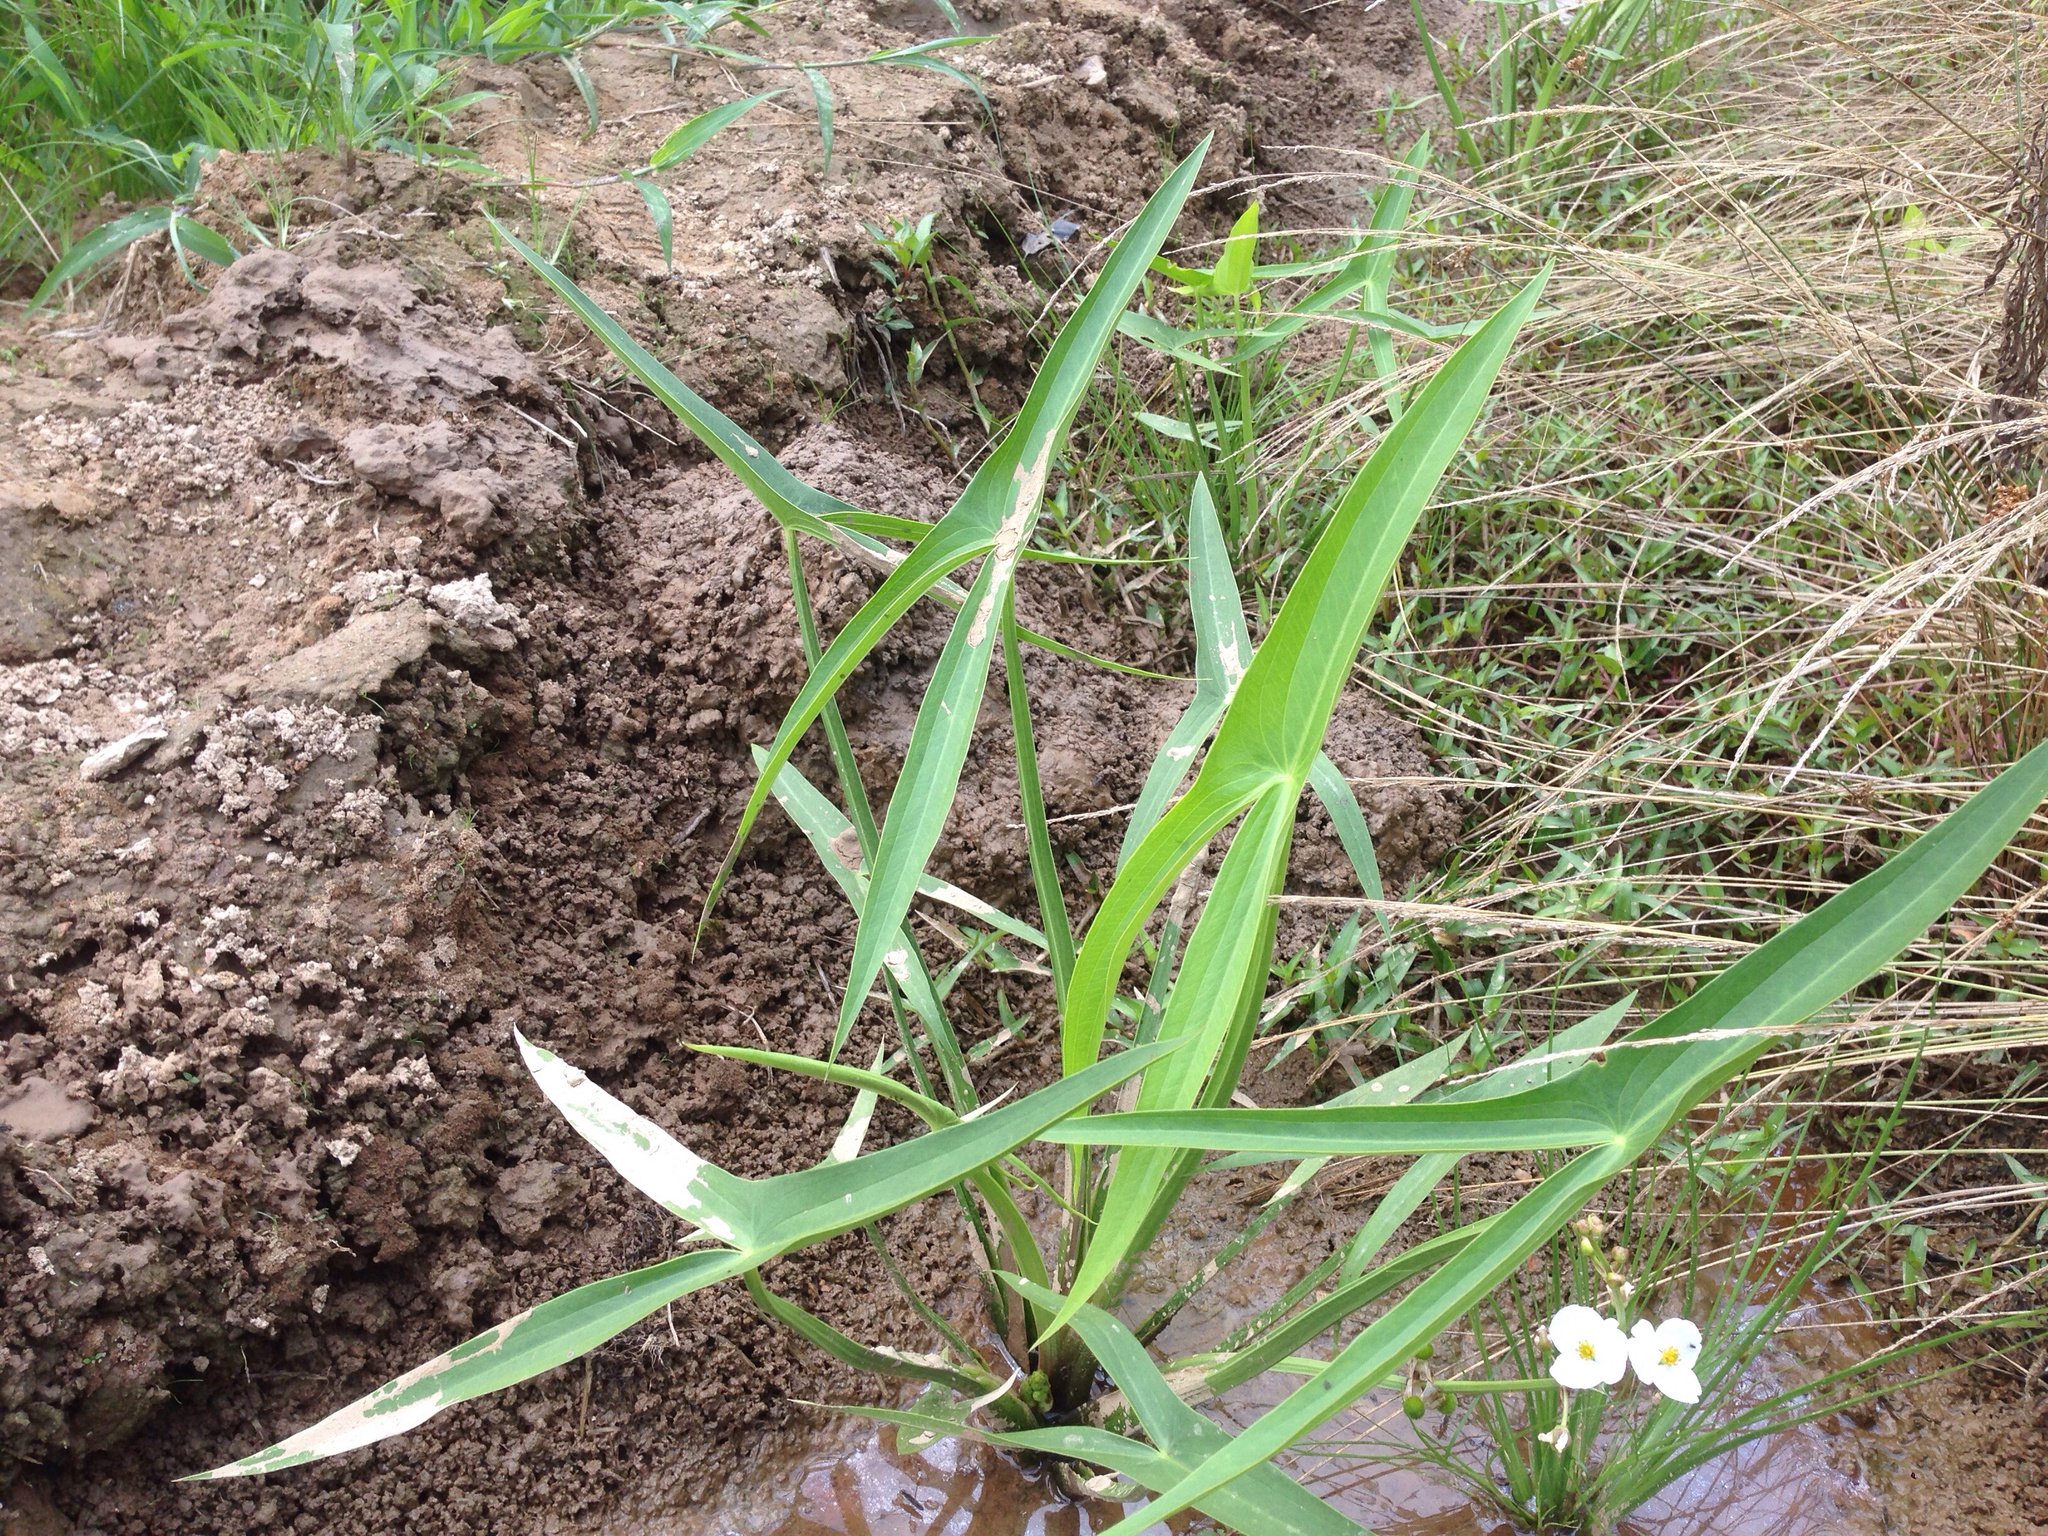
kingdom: Plantae
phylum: Tracheophyta
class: Liliopsida
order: Alismatales
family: Alismataceae
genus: Sagittaria
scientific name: Sagittaria trifolia
